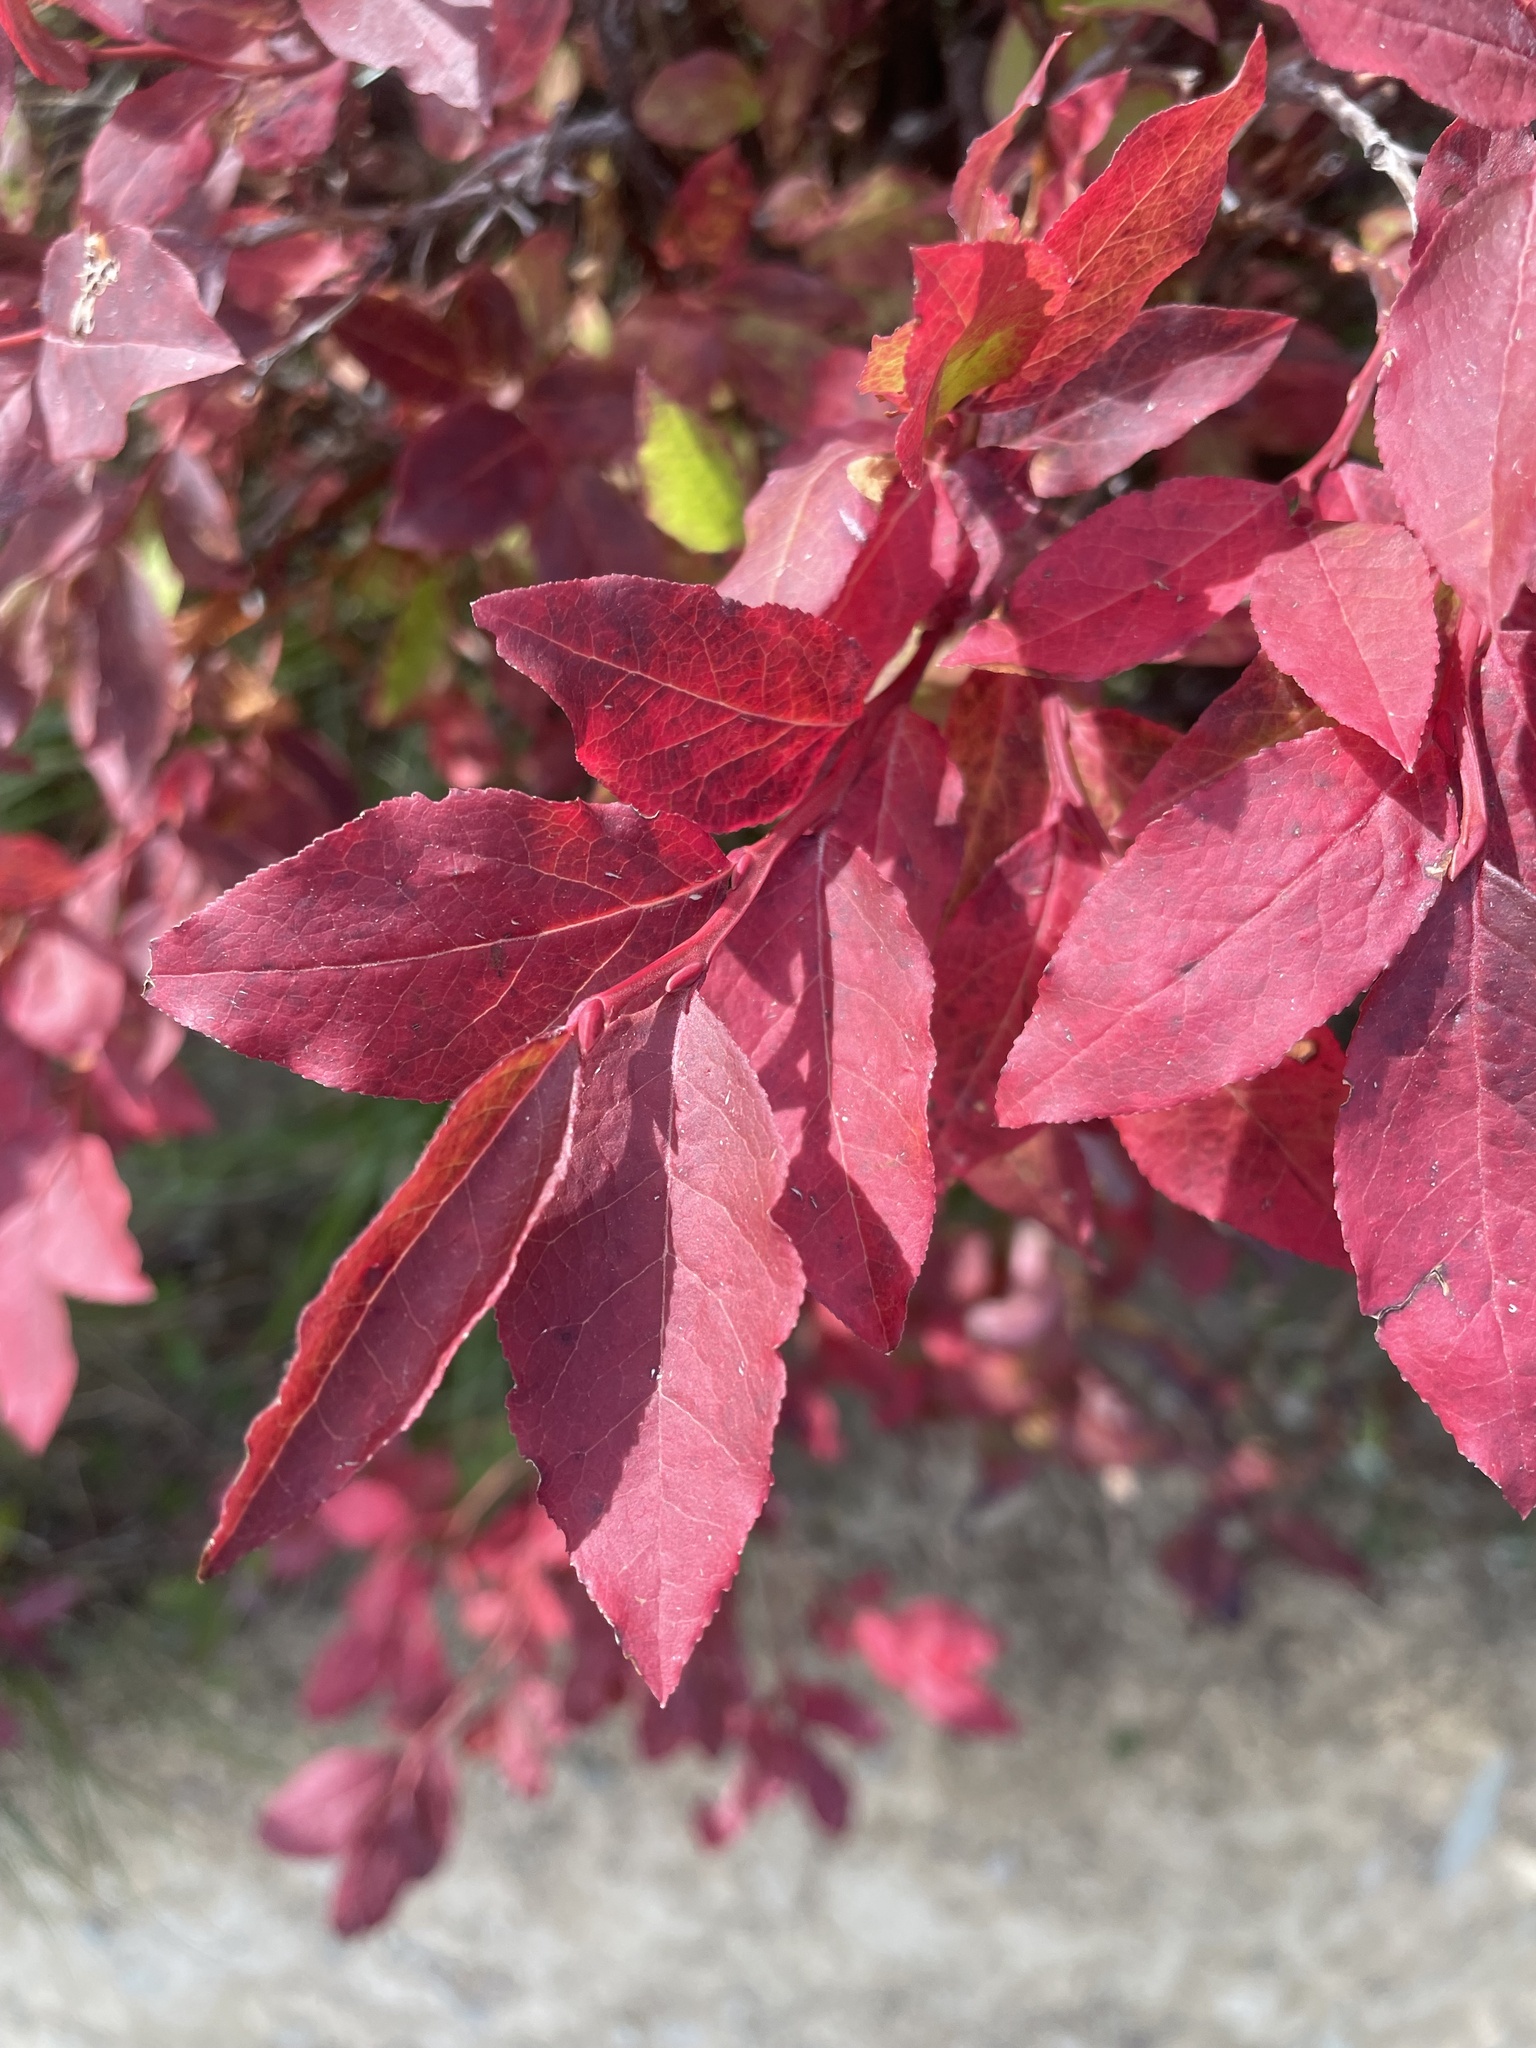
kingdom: Plantae
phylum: Tracheophyta
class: Magnoliopsida
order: Ericales
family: Ericaceae
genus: Vaccinium
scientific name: Vaccinium membranaceum
